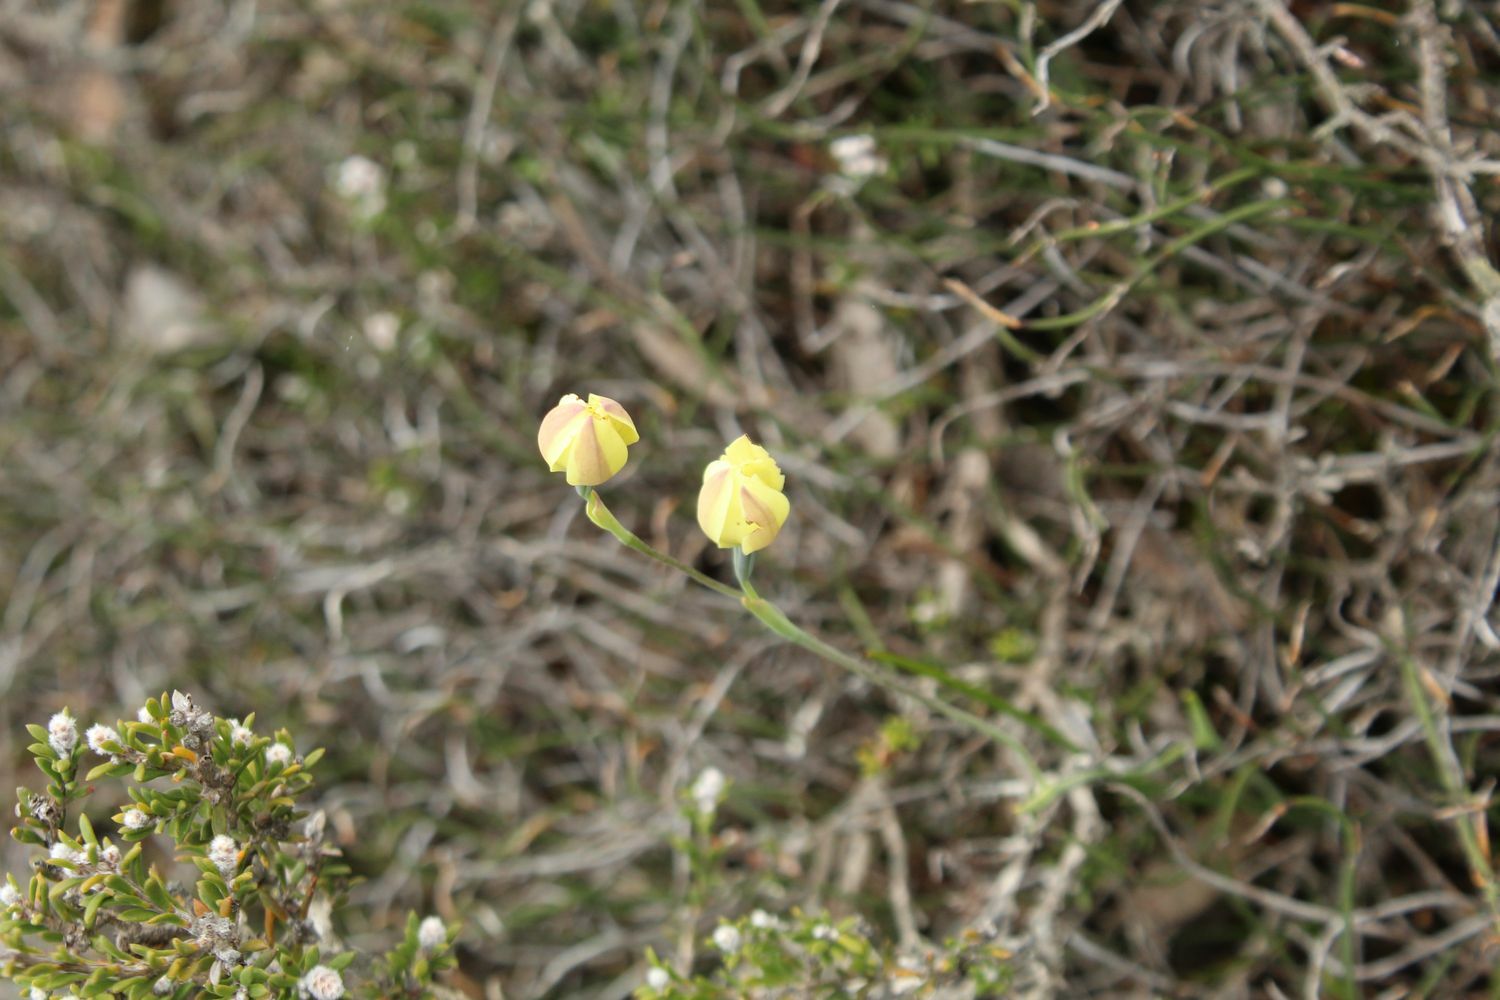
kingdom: Plantae
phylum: Tracheophyta
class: Liliopsida
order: Asparagales
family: Orchidaceae
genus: Thelymitra
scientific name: Thelymitra antennifera
